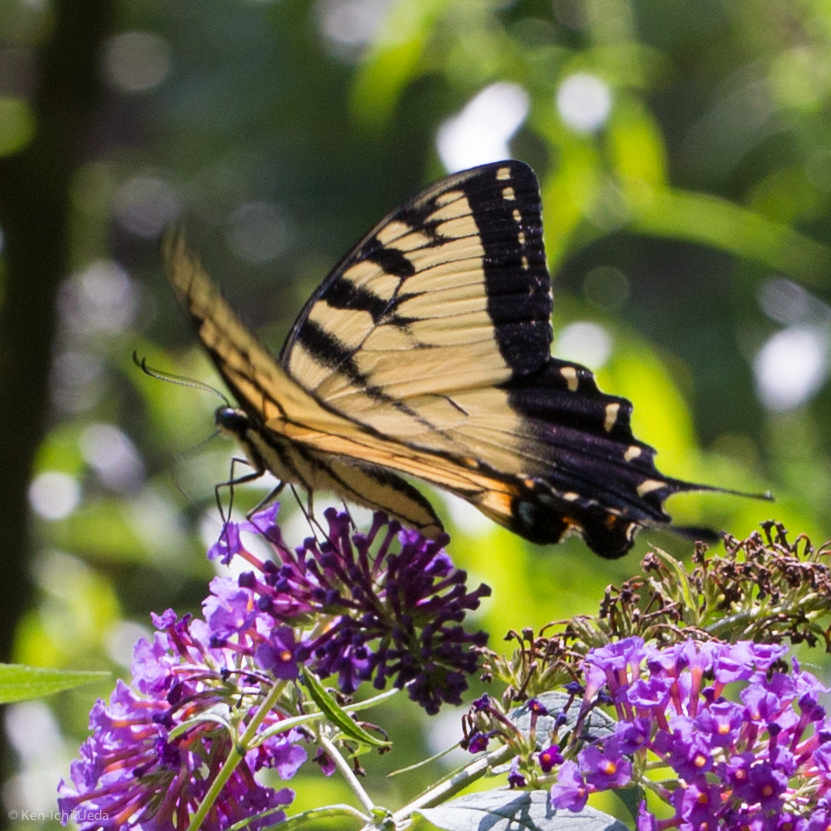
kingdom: Animalia
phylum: Arthropoda
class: Insecta
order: Lepidoptera
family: Papilionidae
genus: Papilio
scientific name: Papilio glaucus
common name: Tiger swallowtail
